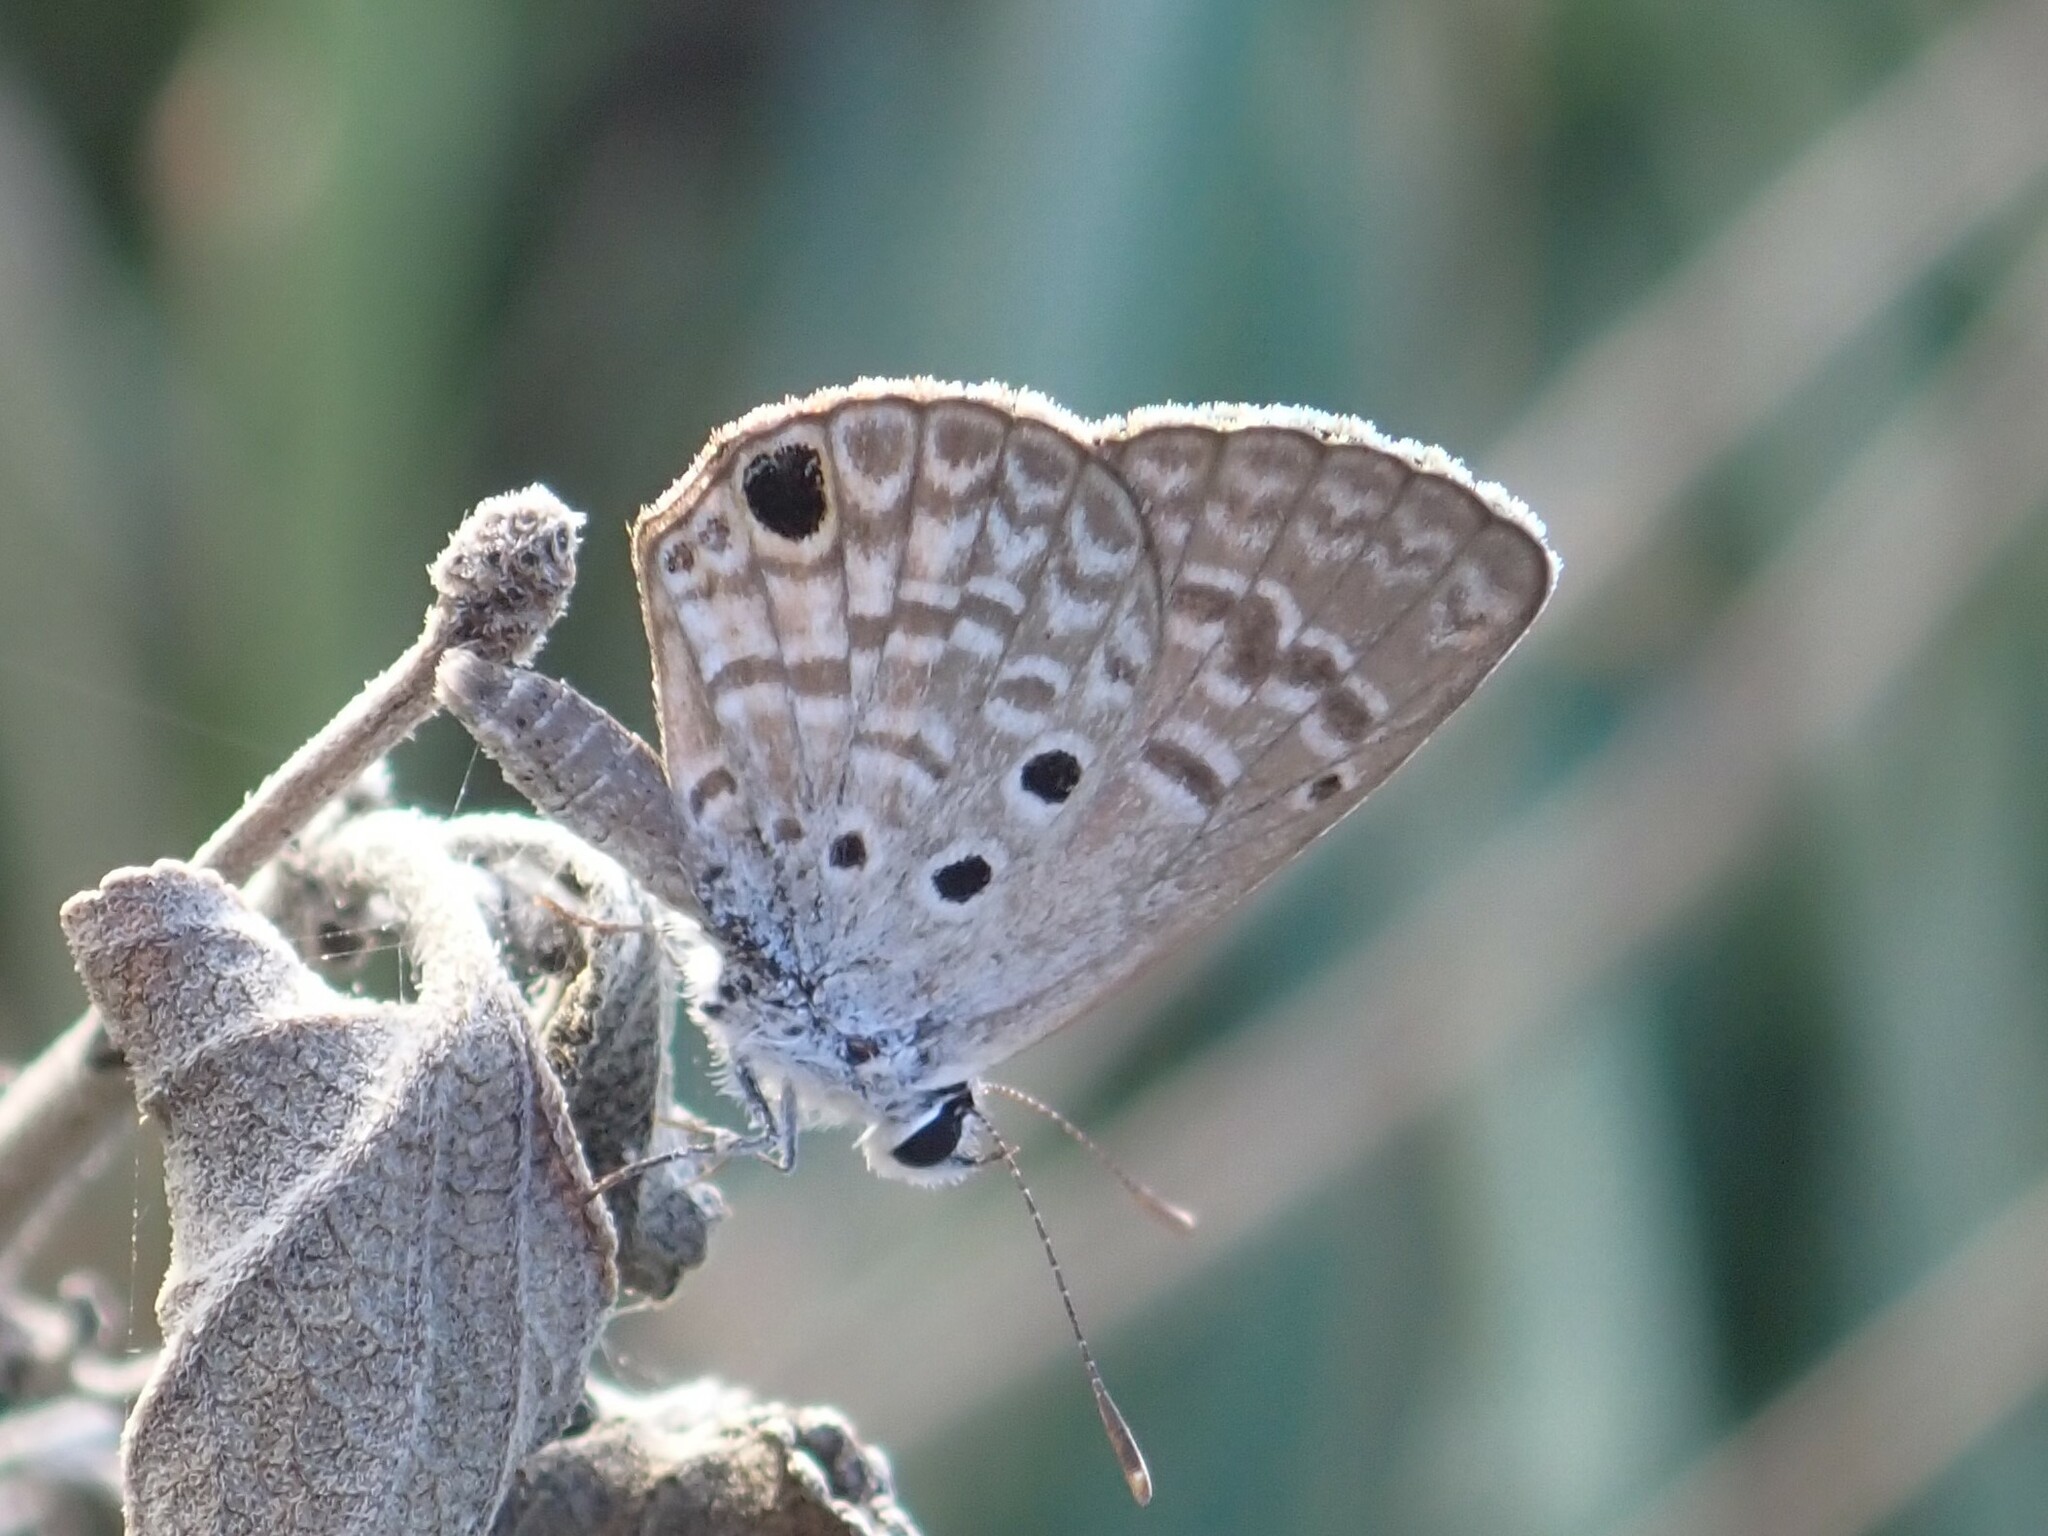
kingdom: Animalia
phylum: Arthropoda
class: Insecta
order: Lepidoptera
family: Lycaenidae
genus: Hemiargus
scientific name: Hemiargus ceraunus
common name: Ceraunus blue
